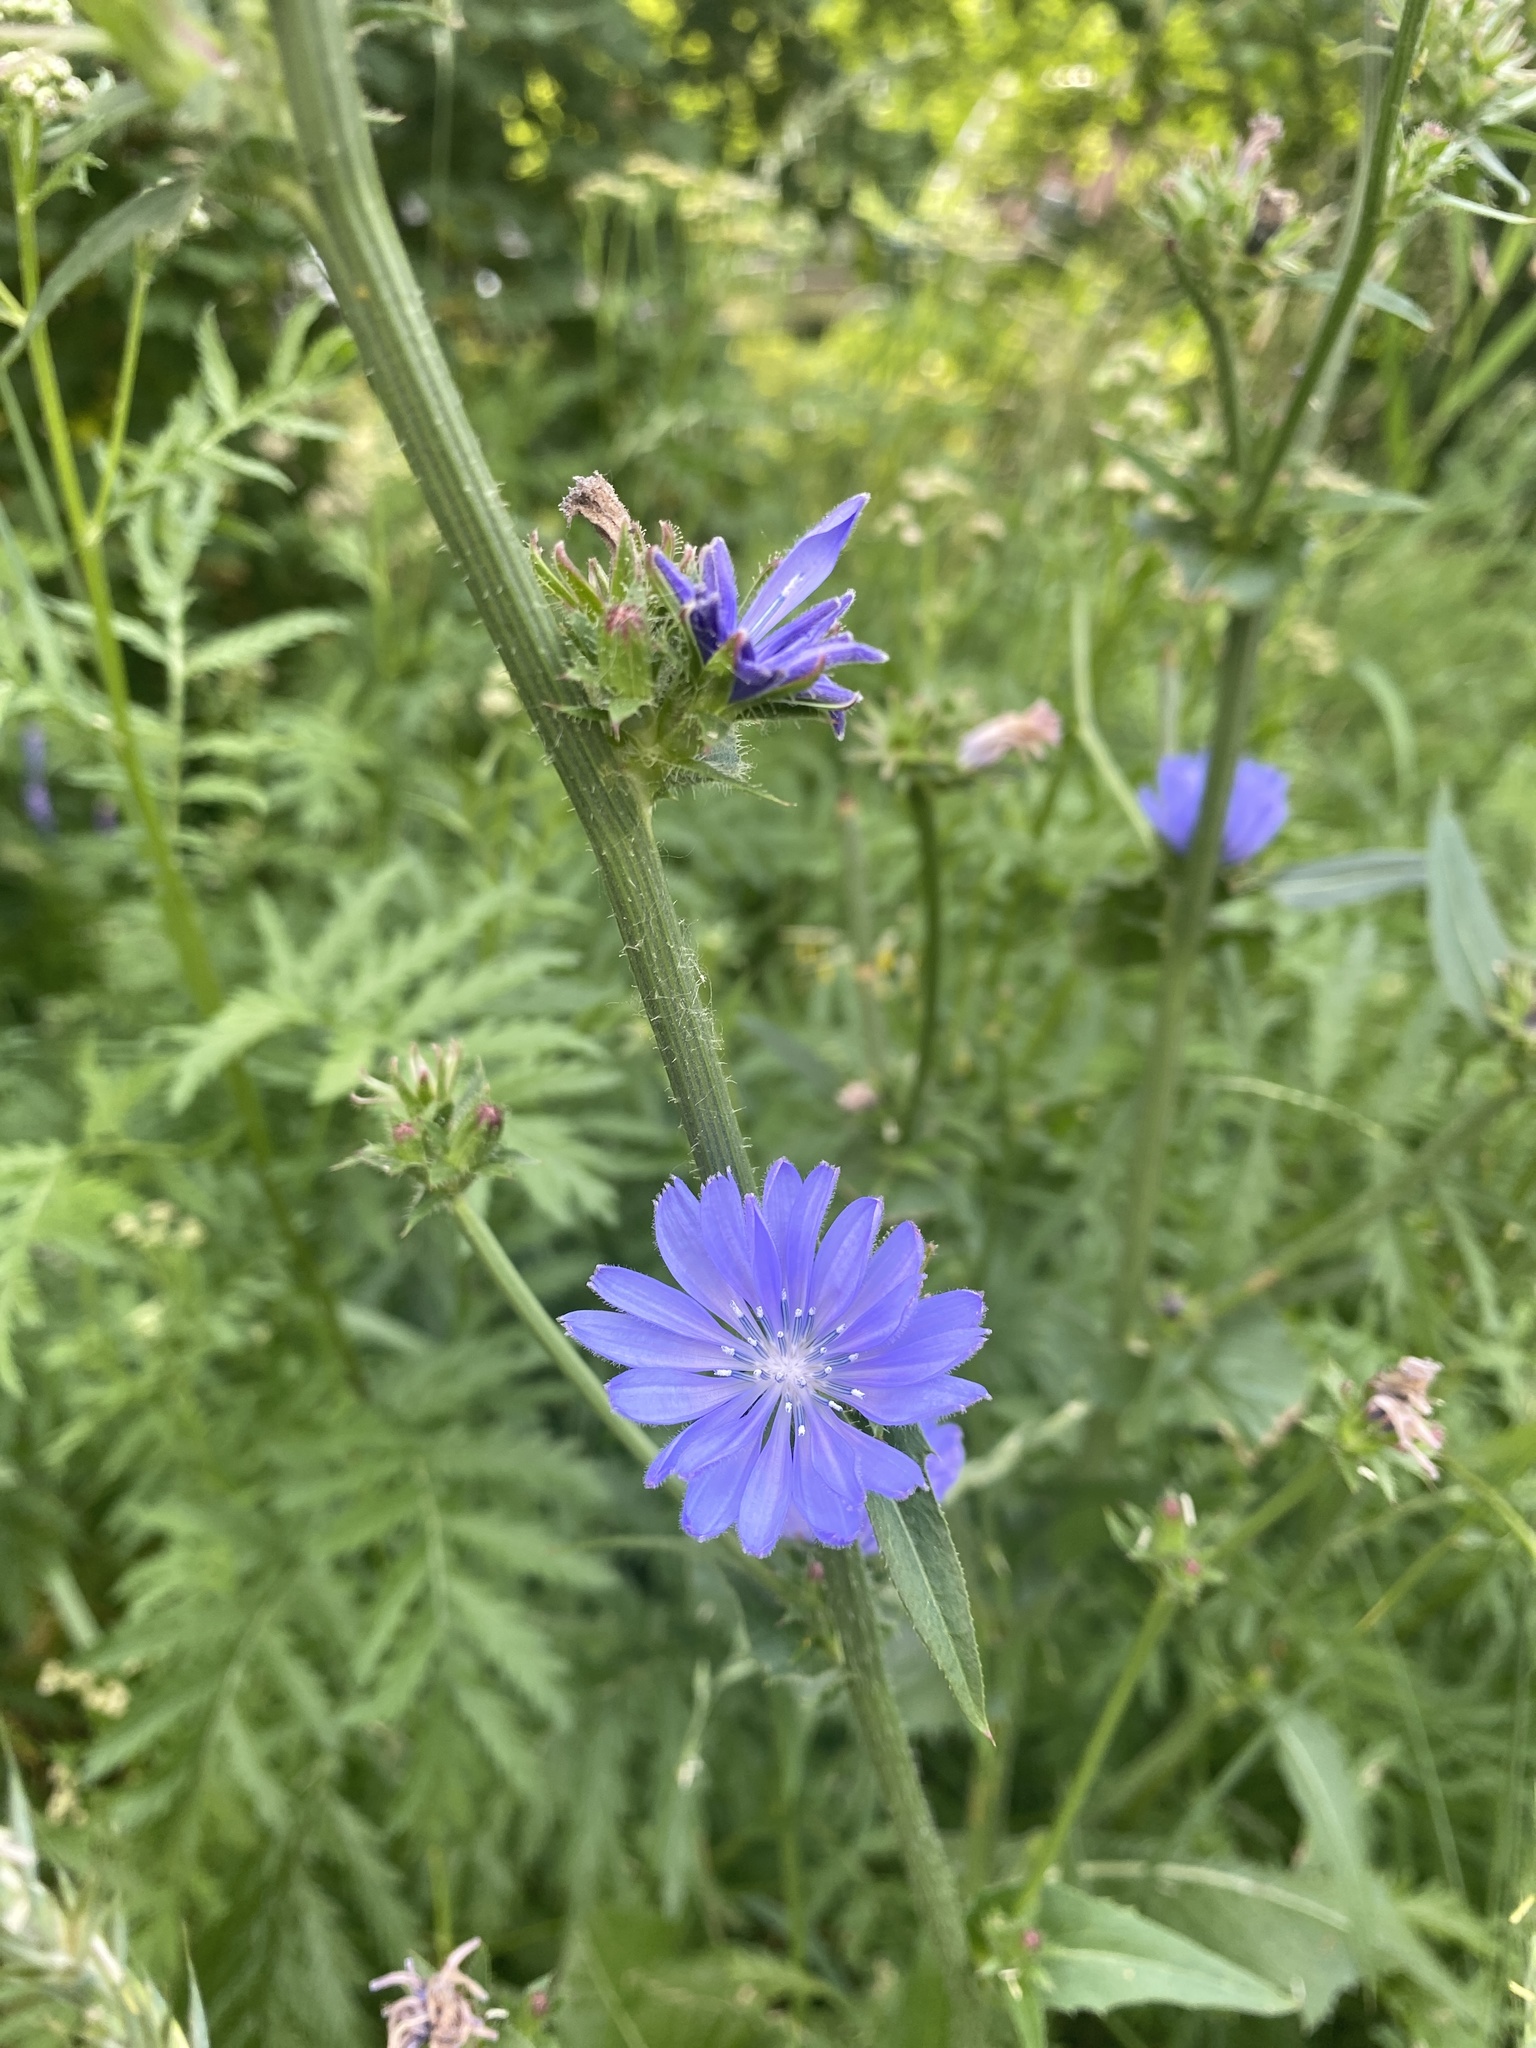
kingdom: Plantae
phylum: Tracheophyta
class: Magnoliopsida
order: Asterales
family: Asteraceae
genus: Cichorium
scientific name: Cichorium intybus
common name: Chicory
